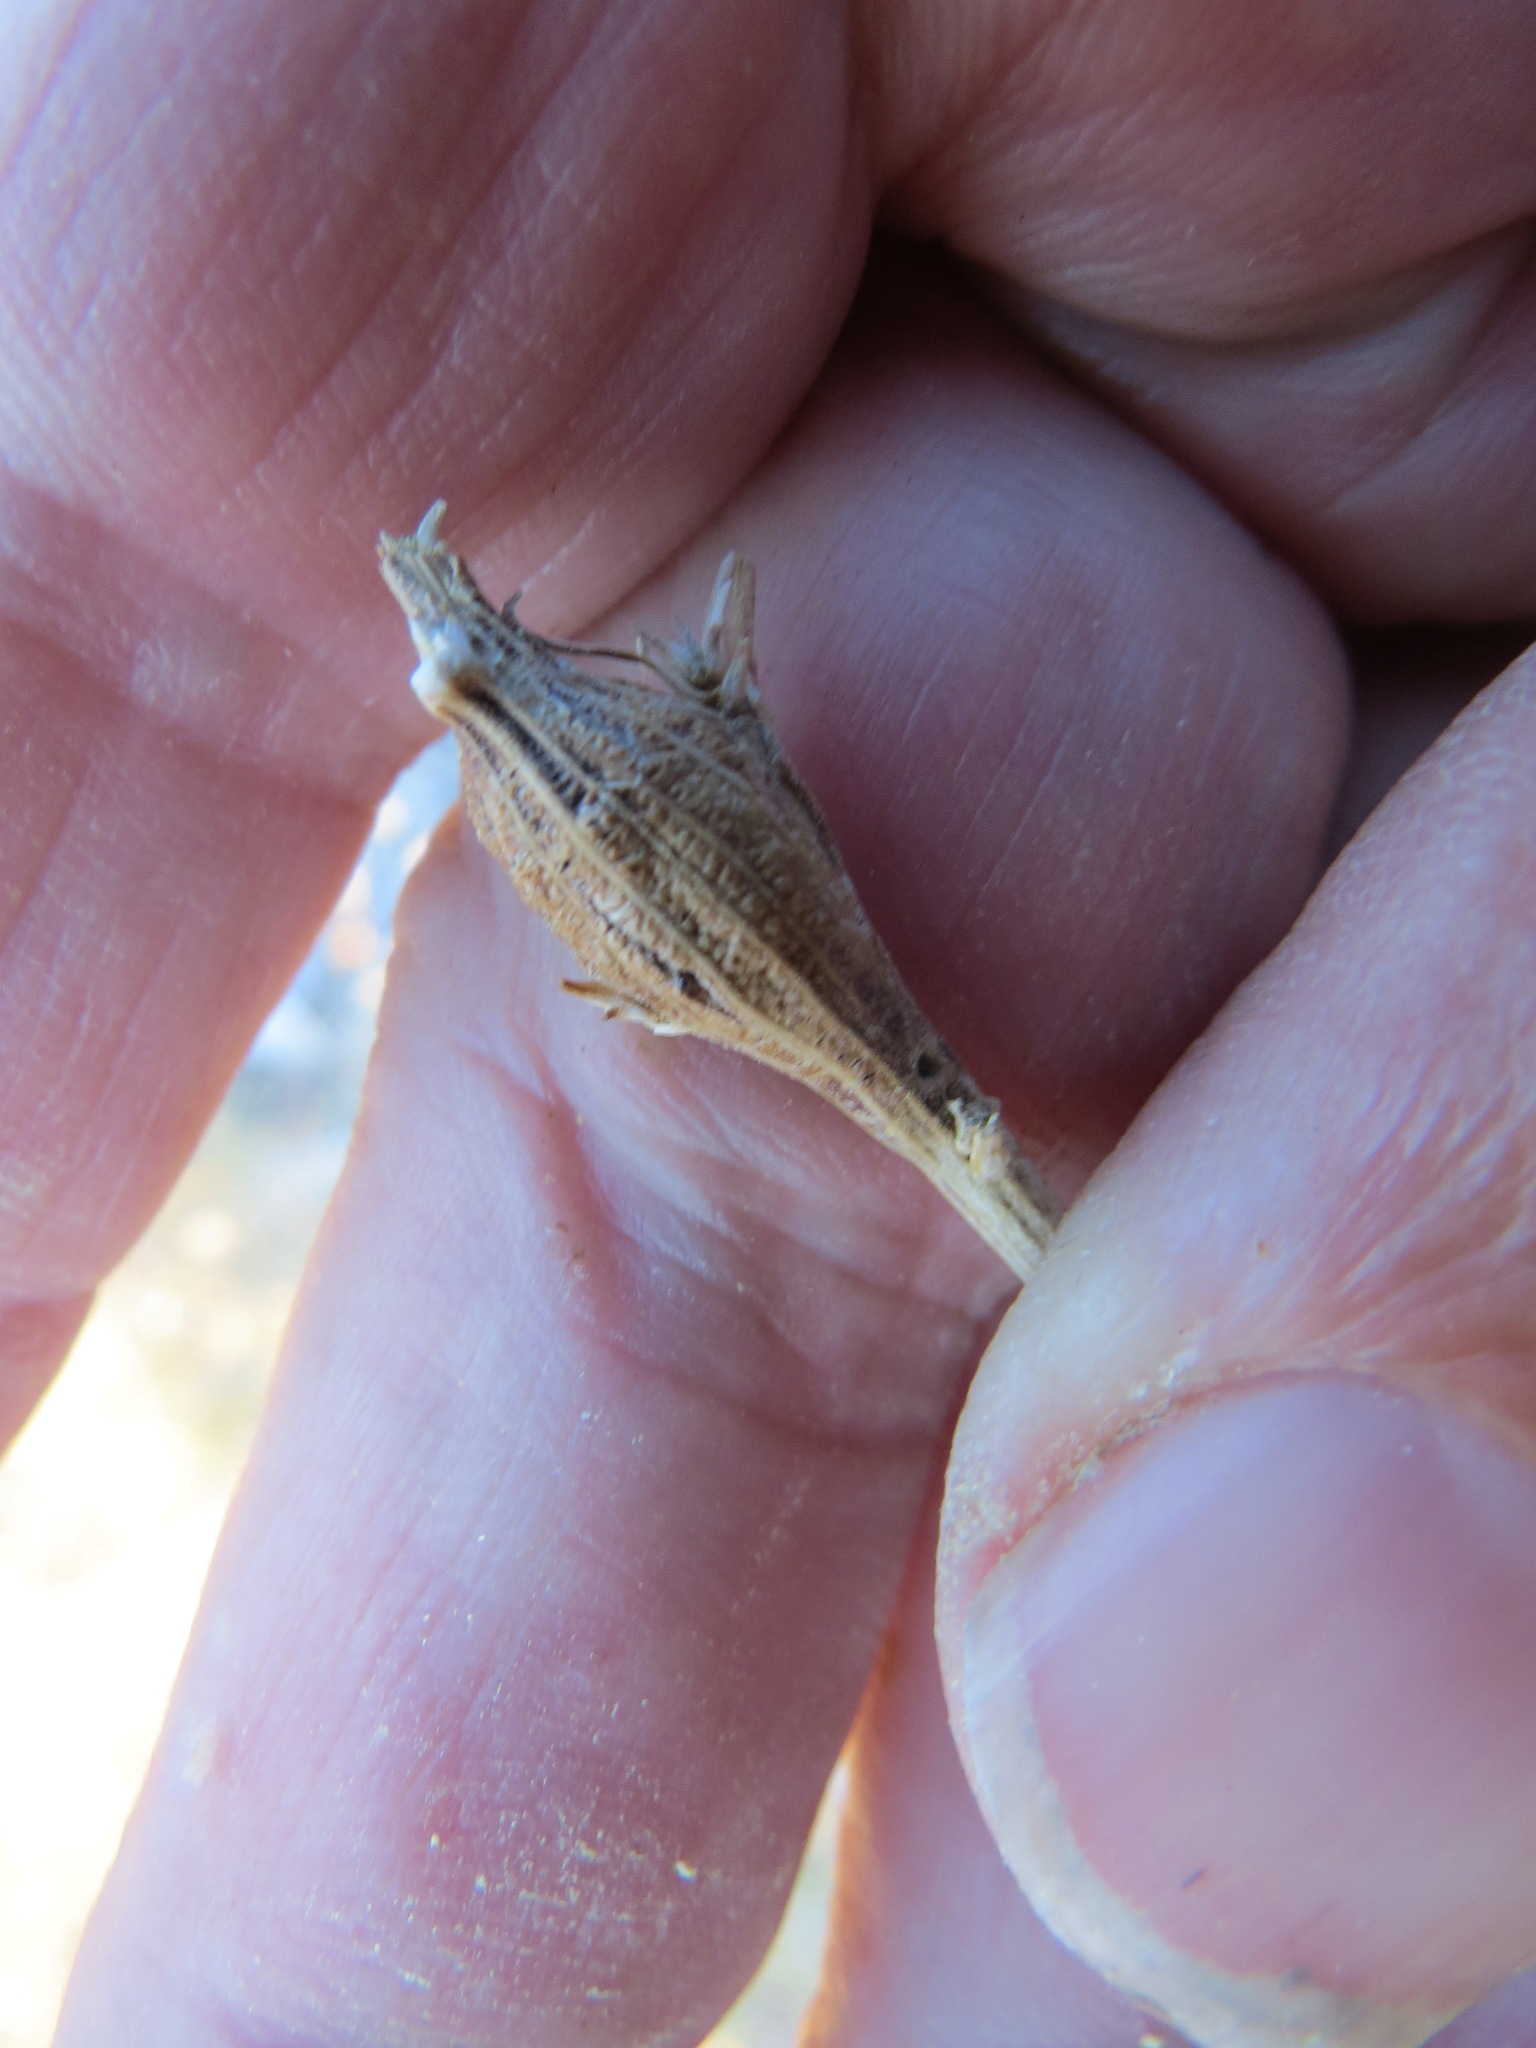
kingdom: Animalia
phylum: Arthropoda
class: Insecta
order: Lepidoptera
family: Tortricidae
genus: Epiblema
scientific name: Epiblema rudei
